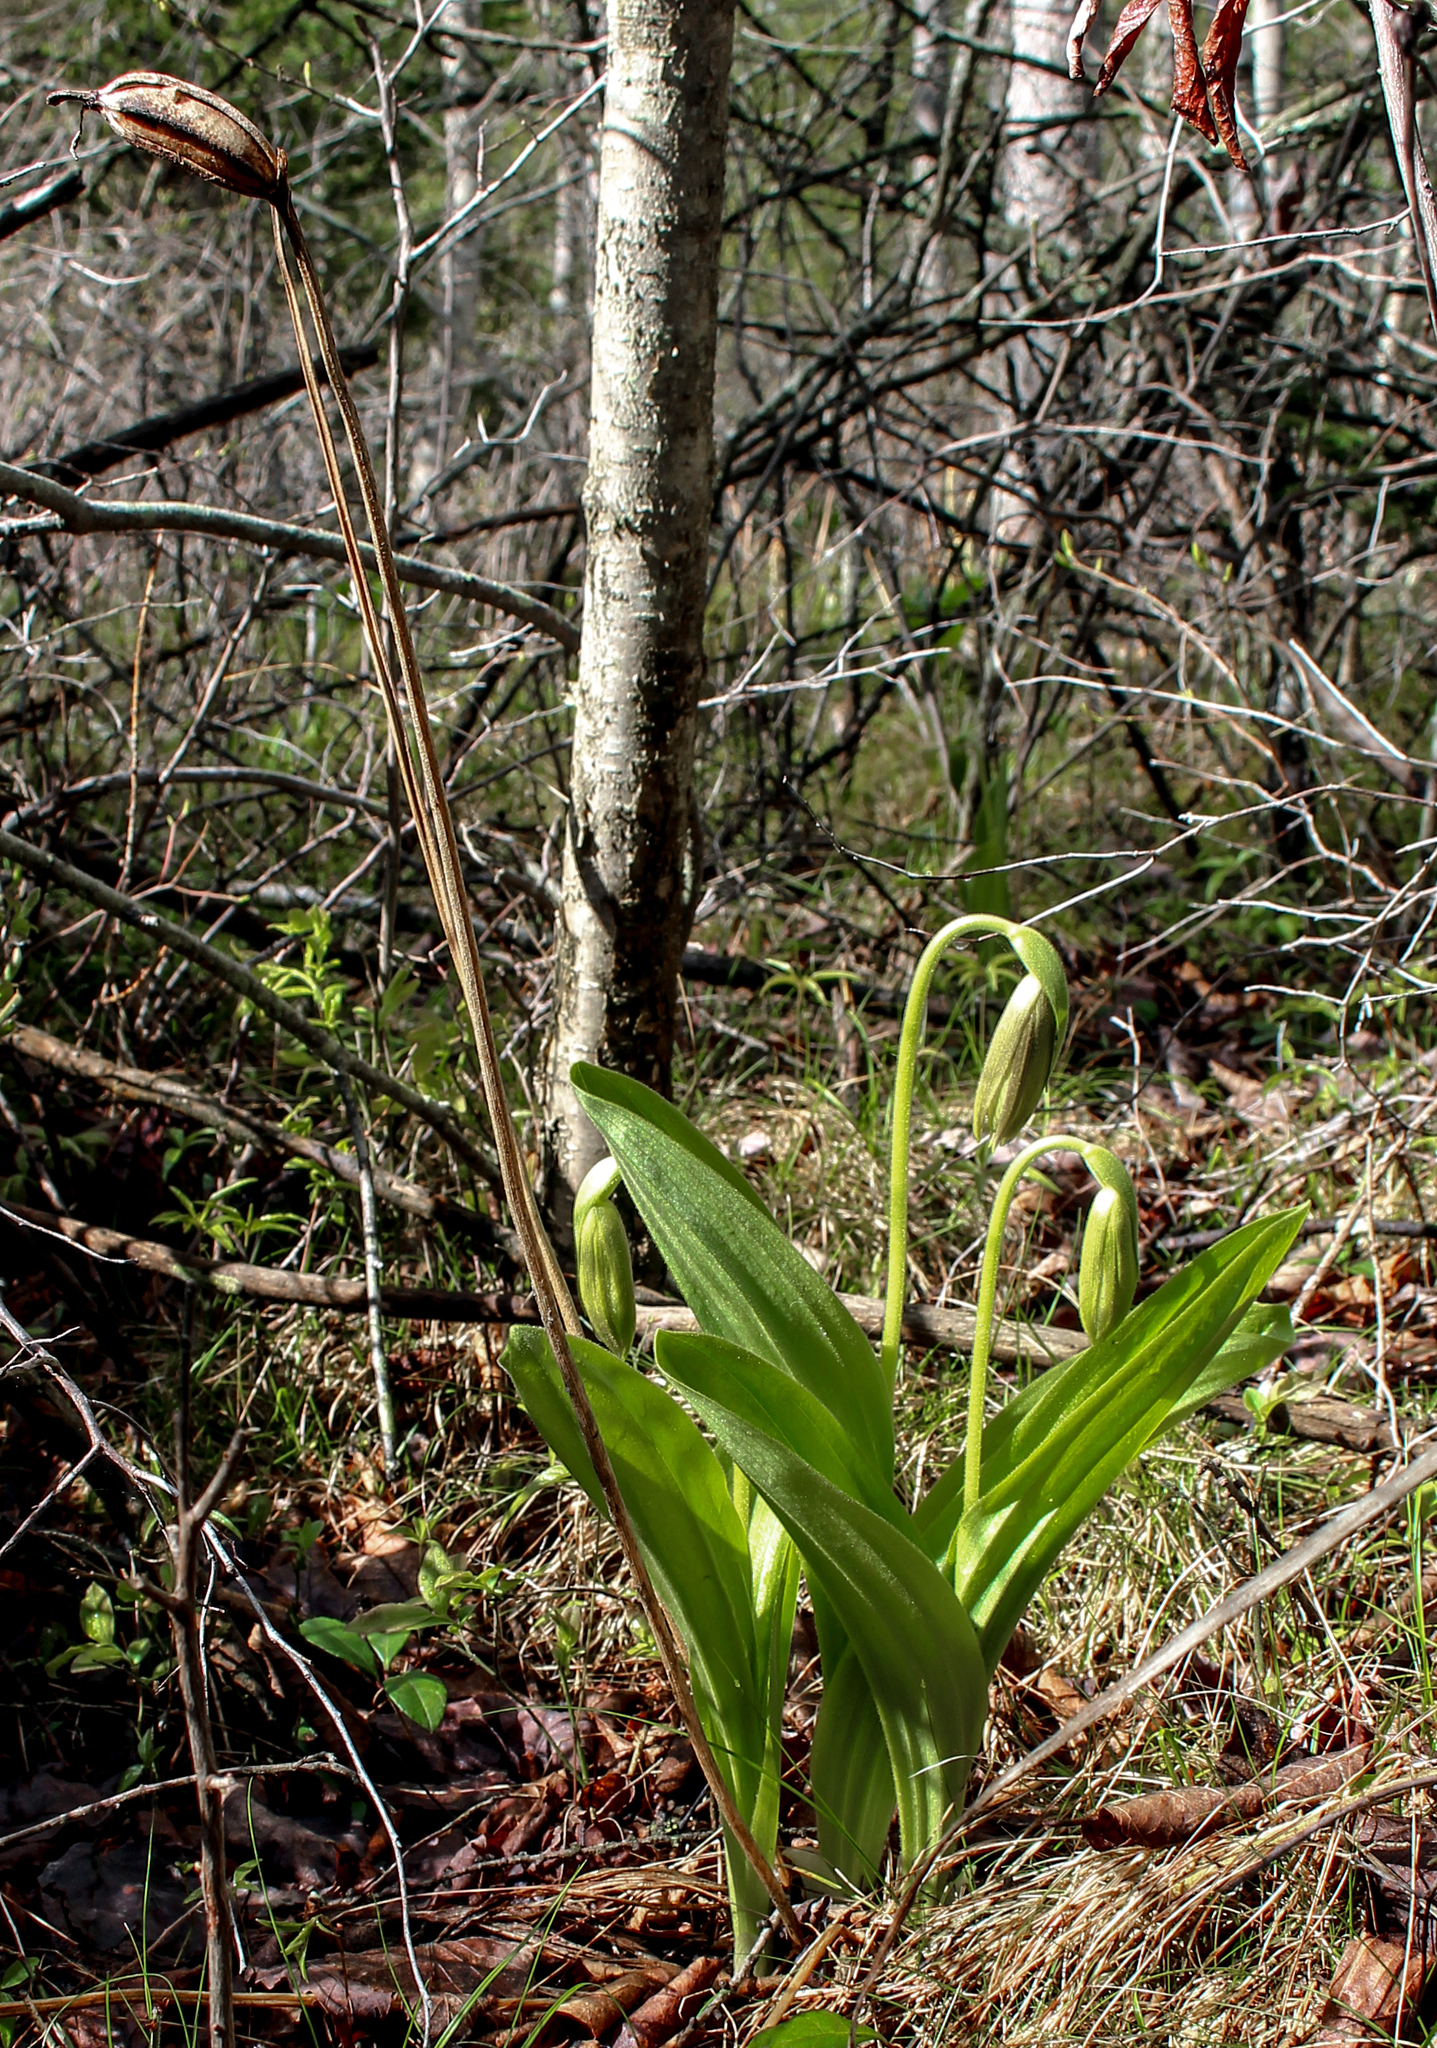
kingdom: Plantae
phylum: Tracheophyta
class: Liliopsida
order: Asparagales
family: Orchidaceae
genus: Cypripedium
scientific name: Cypripedium acaule
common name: Pink lady's-slipper
